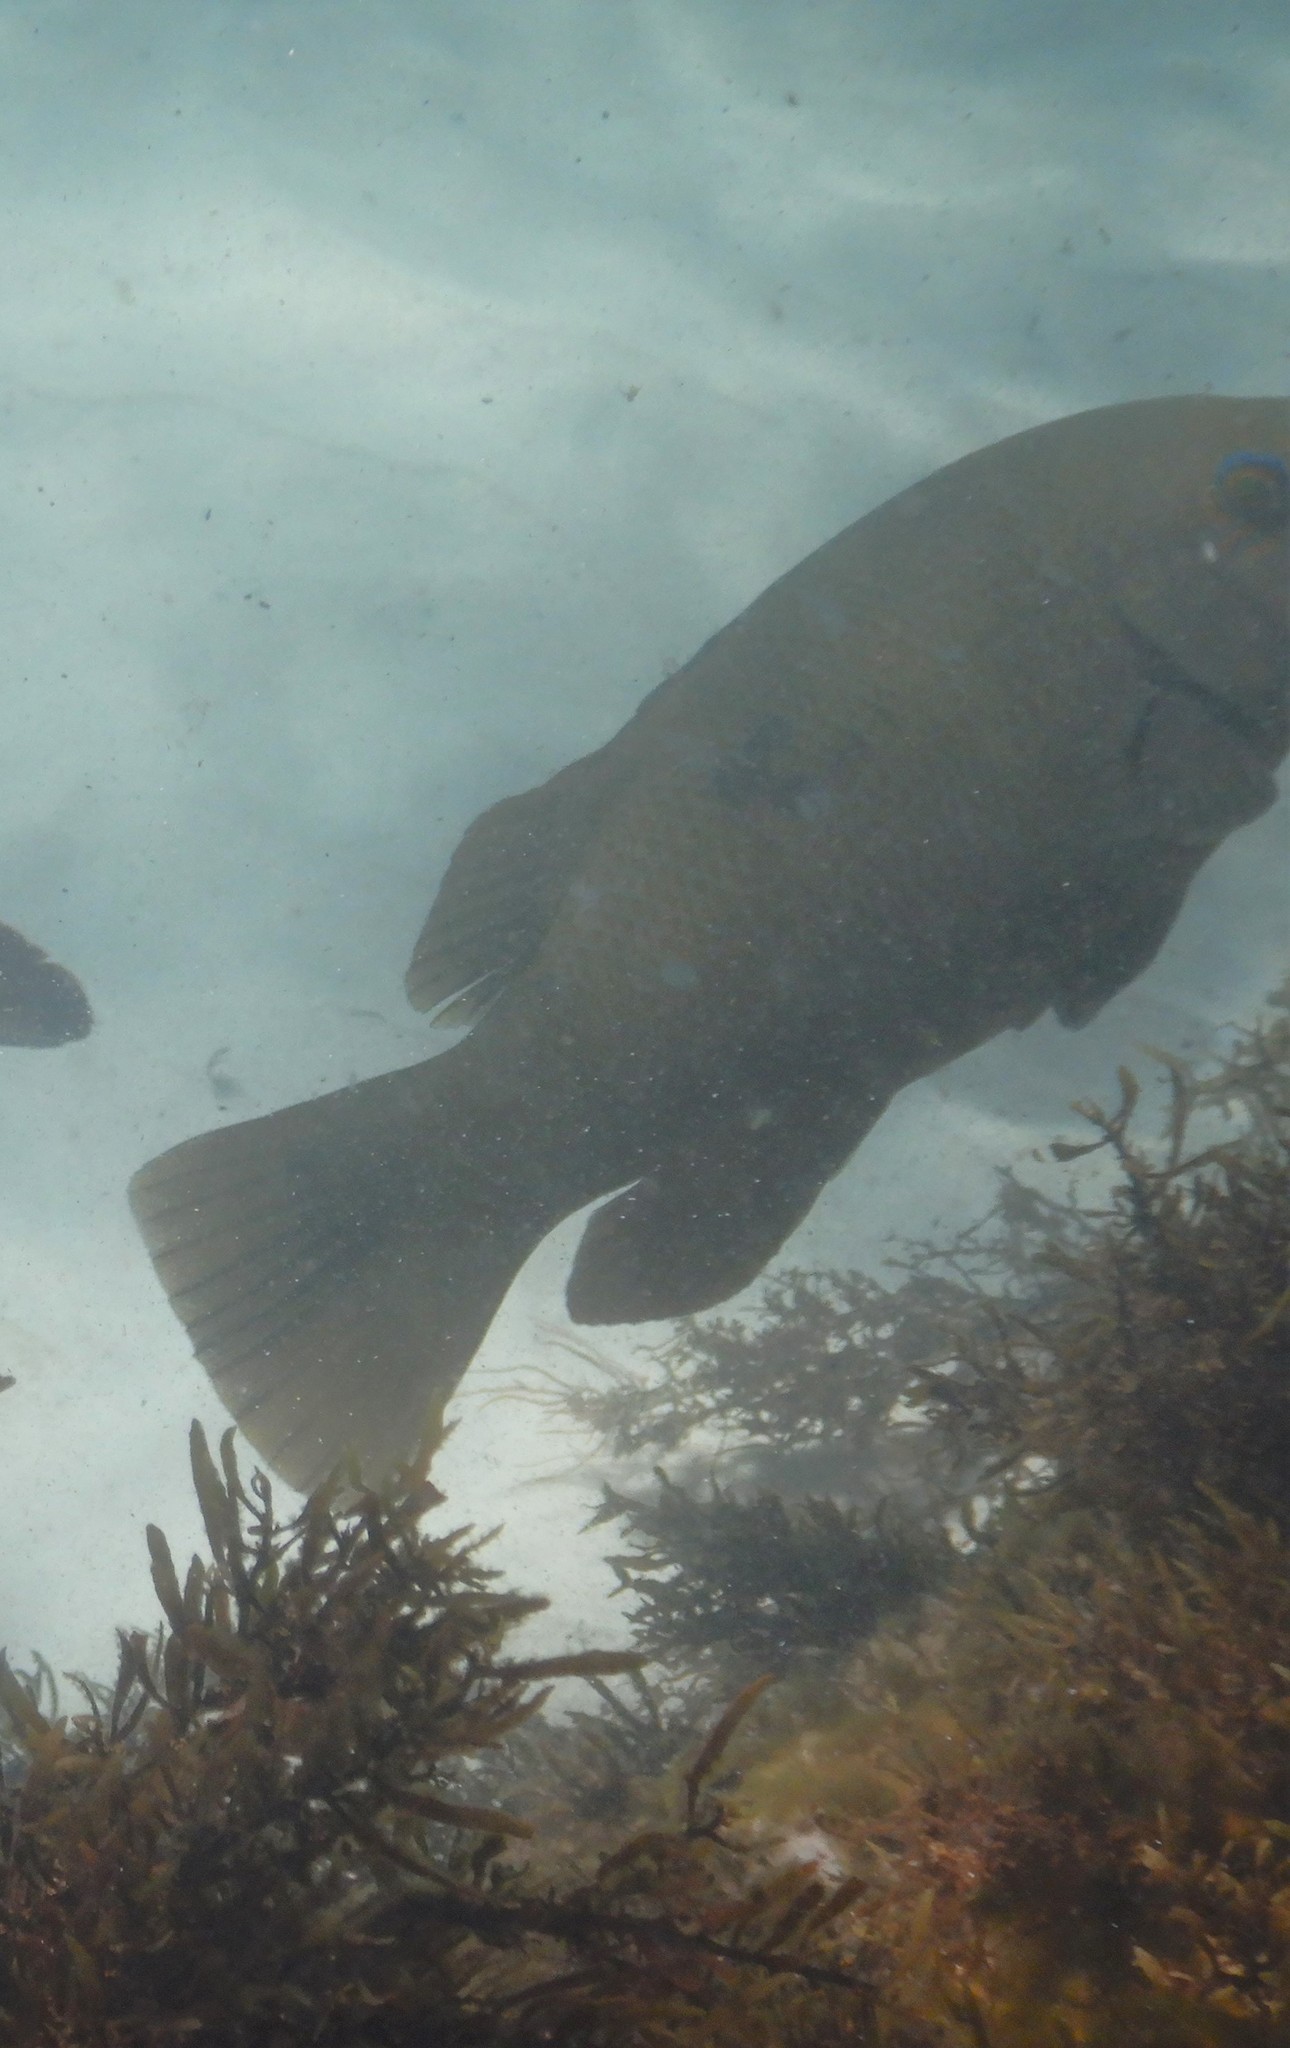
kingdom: Animalia
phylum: Chordata
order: Perciformes
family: Labridae
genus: Achoerodus
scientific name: Achoerodus viridis
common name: Brown groper
